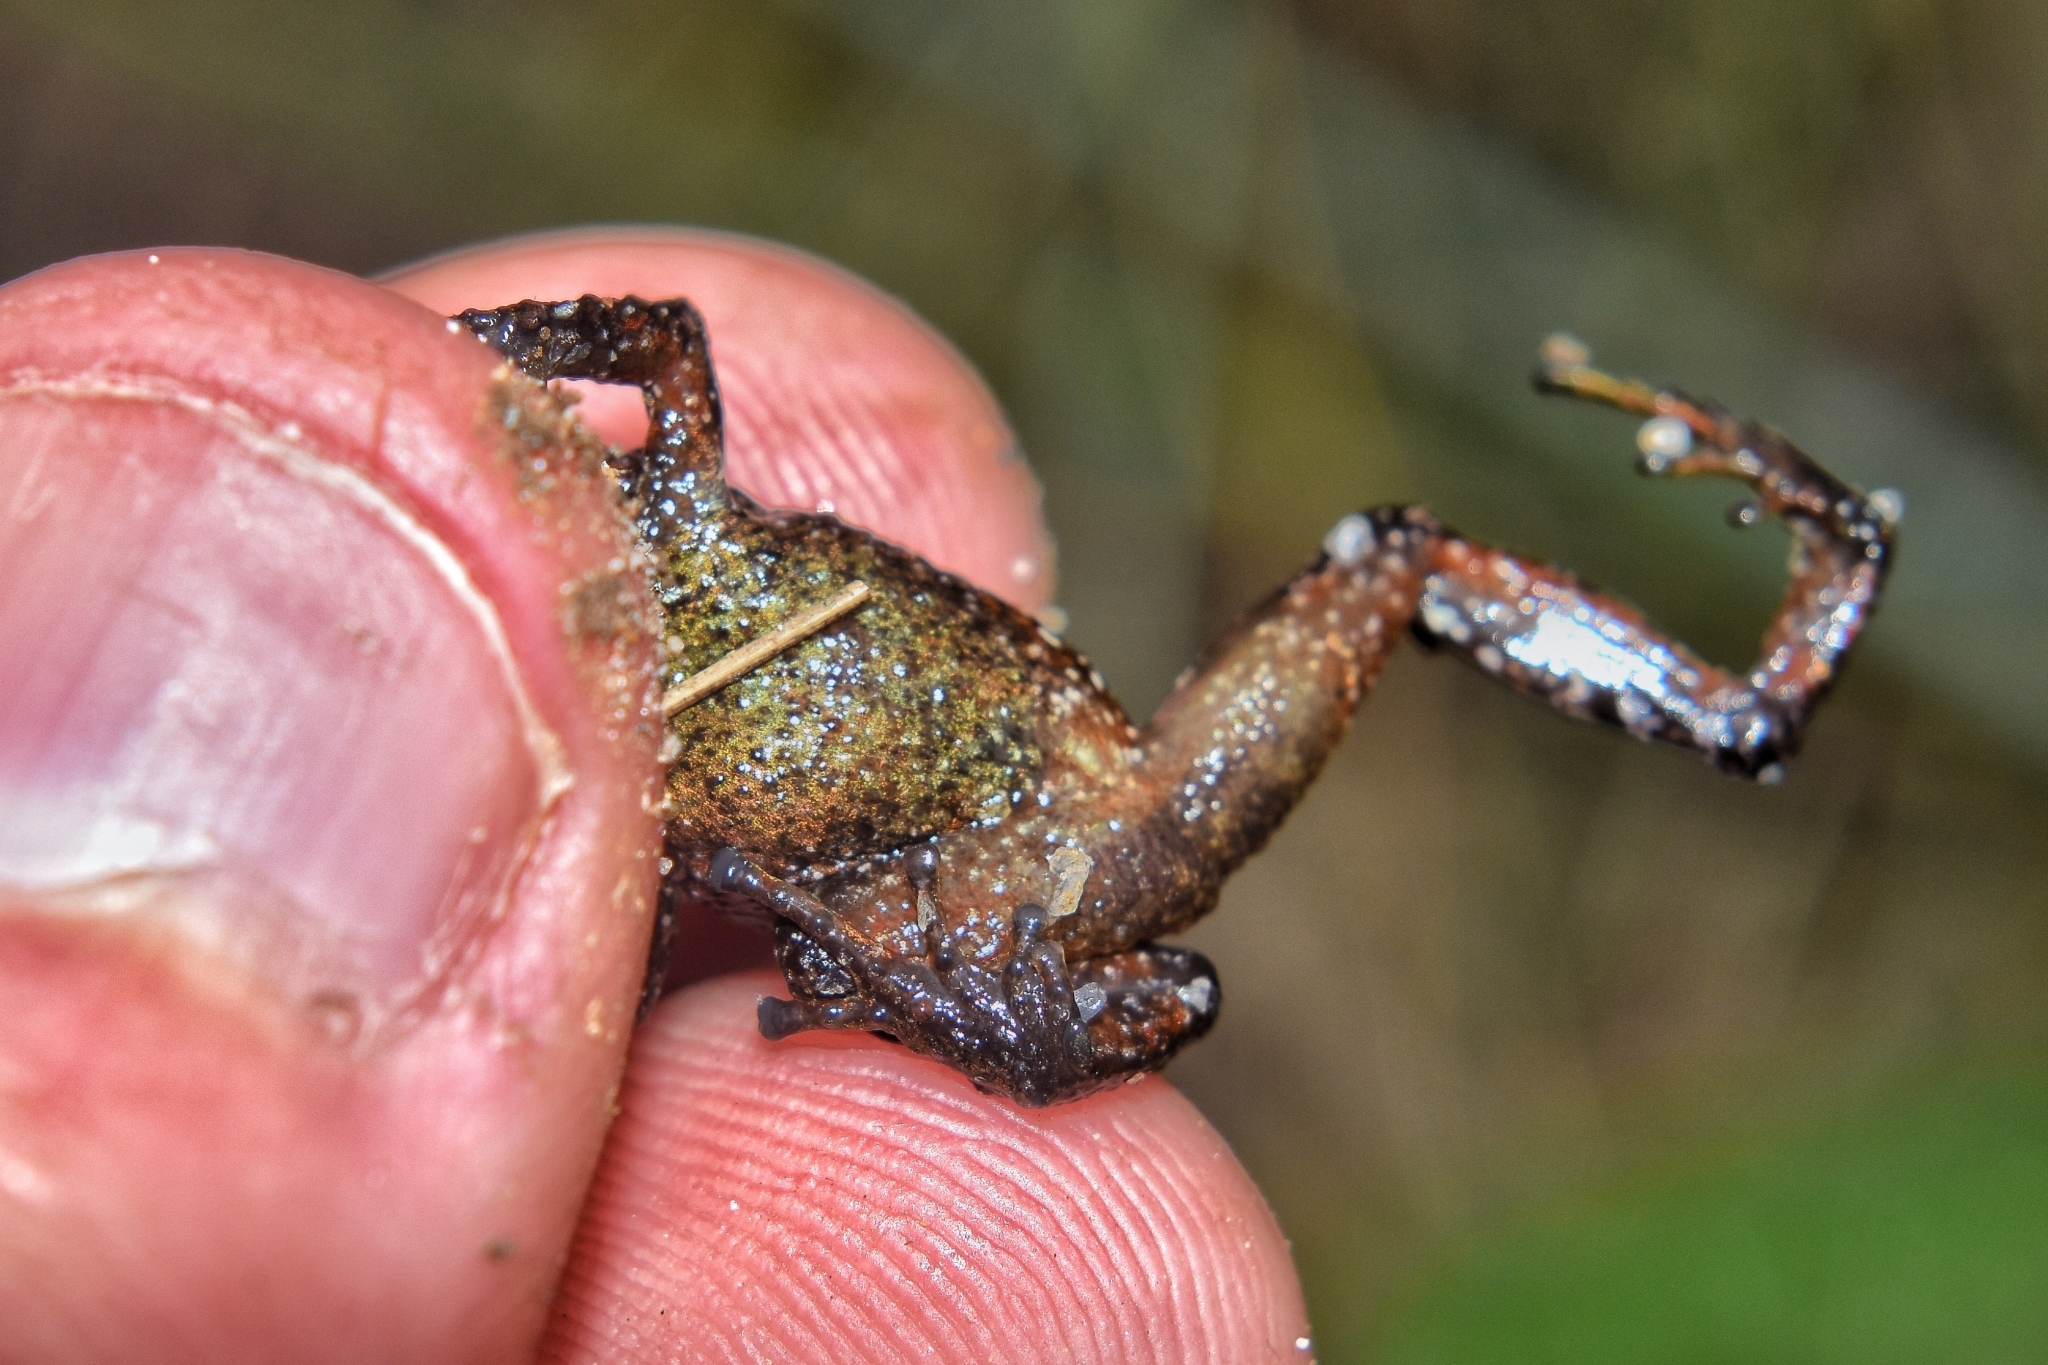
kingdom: Animalia
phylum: Chordata
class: Amphibia
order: Anura
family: Craugastoridae
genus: Pristimantis
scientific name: Pristimantis parectatus
